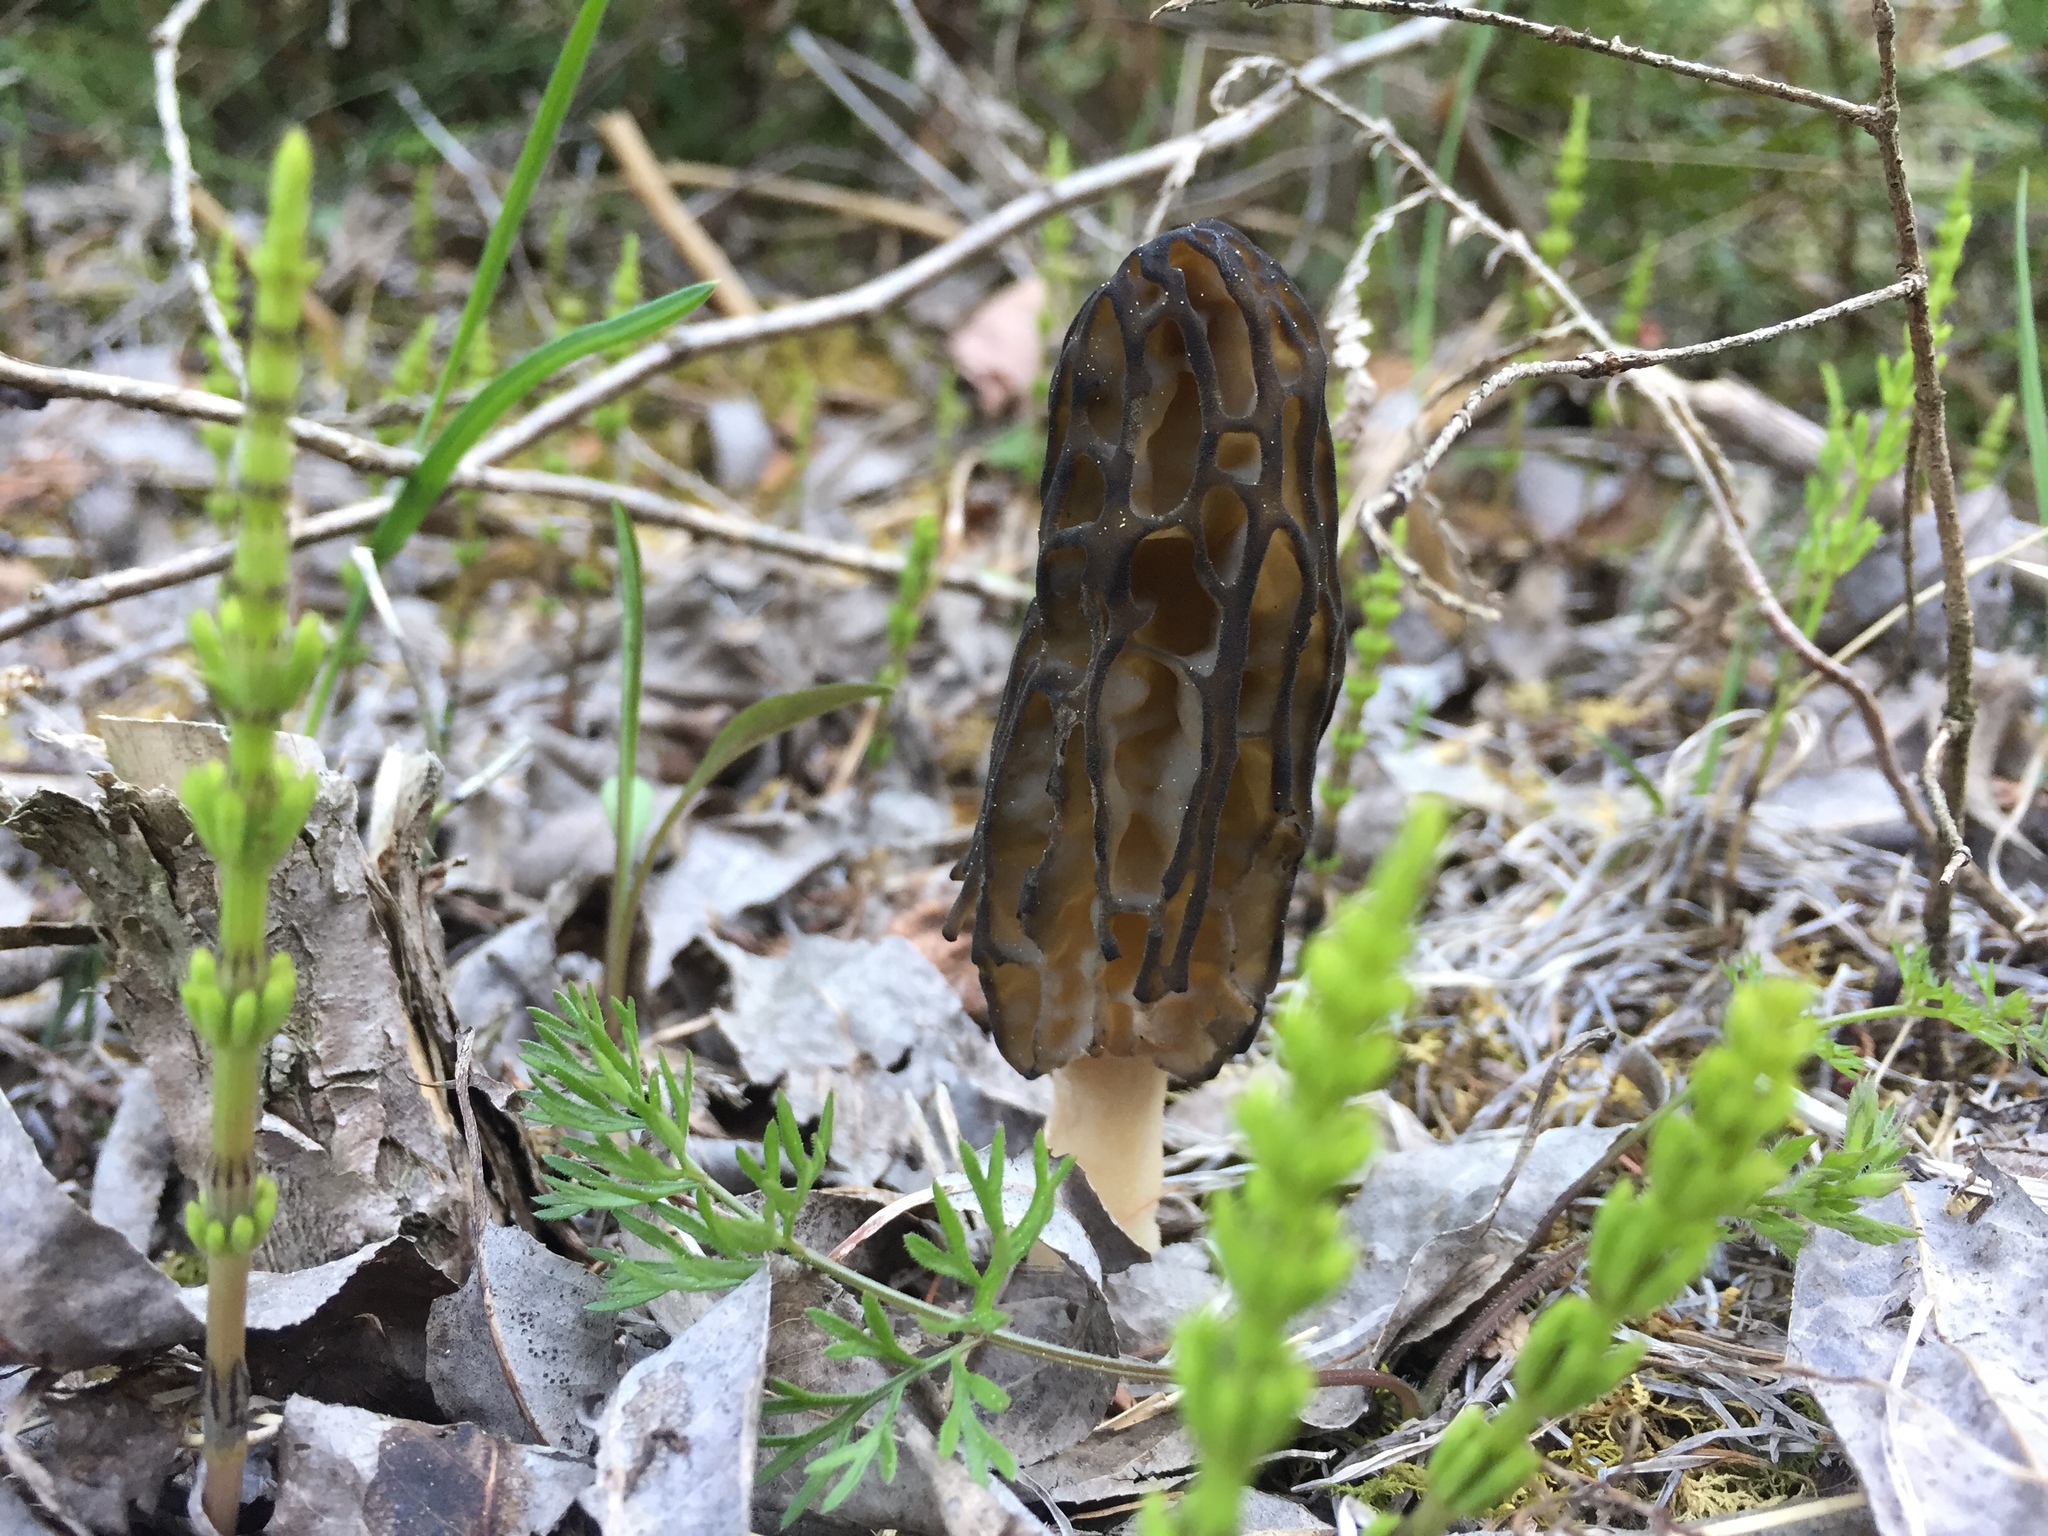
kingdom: Fungi
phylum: Ascomycota
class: Pezizomycetes
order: Pezizales
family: Morchellaceae
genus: Morchella
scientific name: Morchella angusticeps
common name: Black morel
